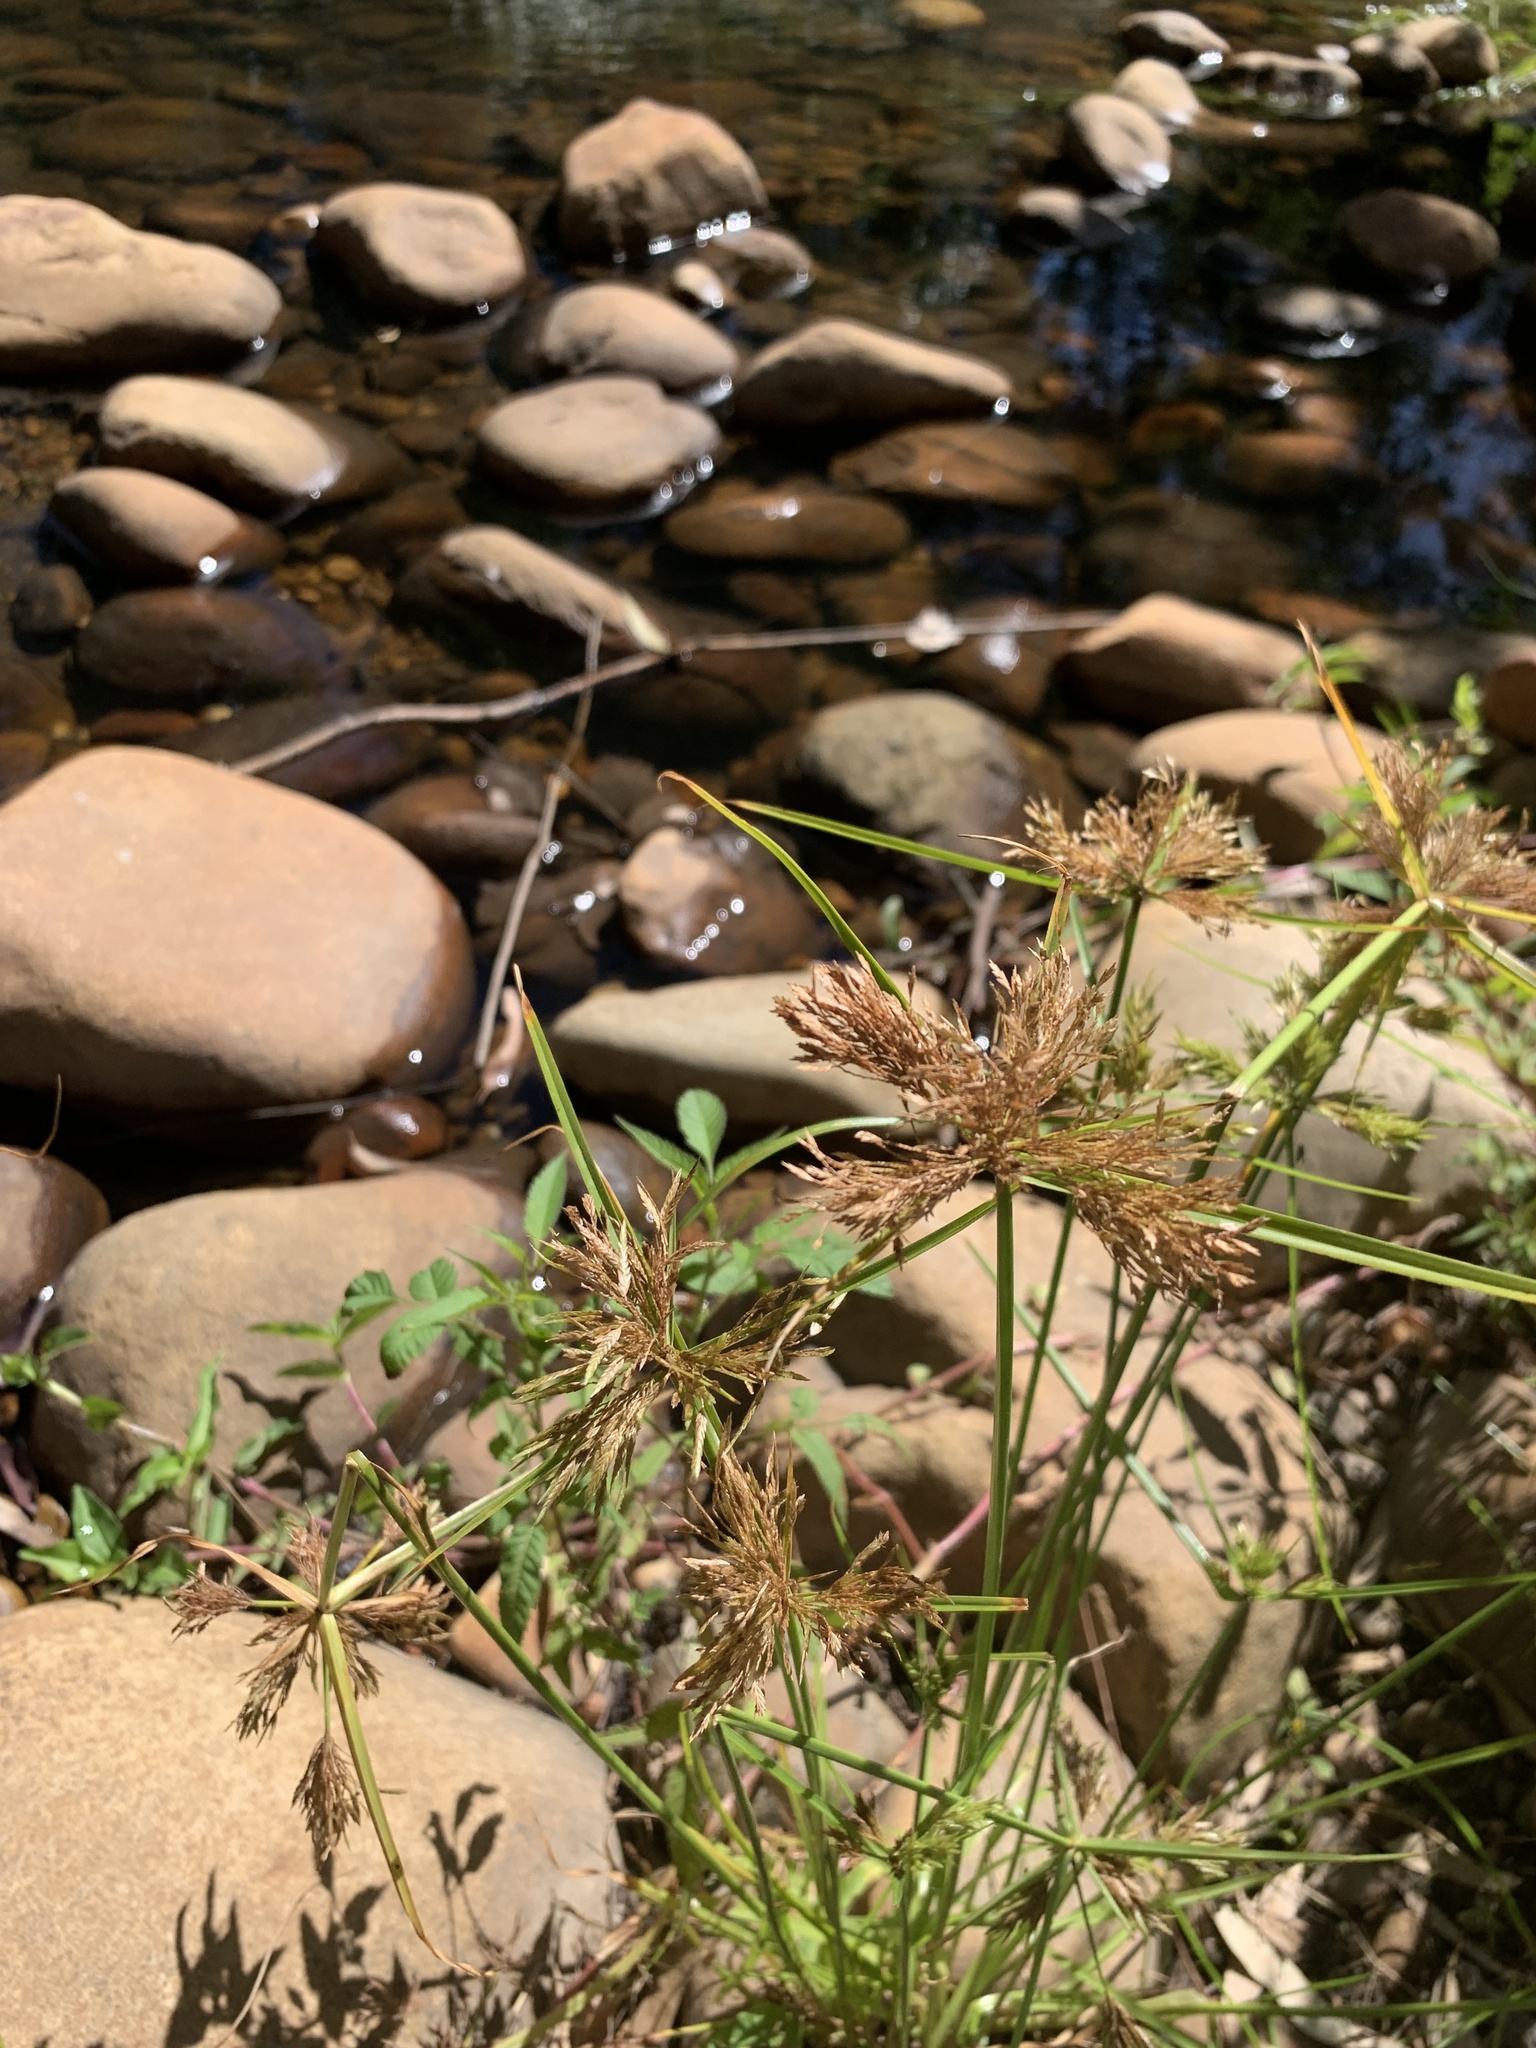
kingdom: Plantae
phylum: Tracheophyta
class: Liliopsida
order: Poales
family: Cyperaceae
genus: Cyperus
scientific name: Cyperus polystachyos
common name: Bunchy flat sedge
